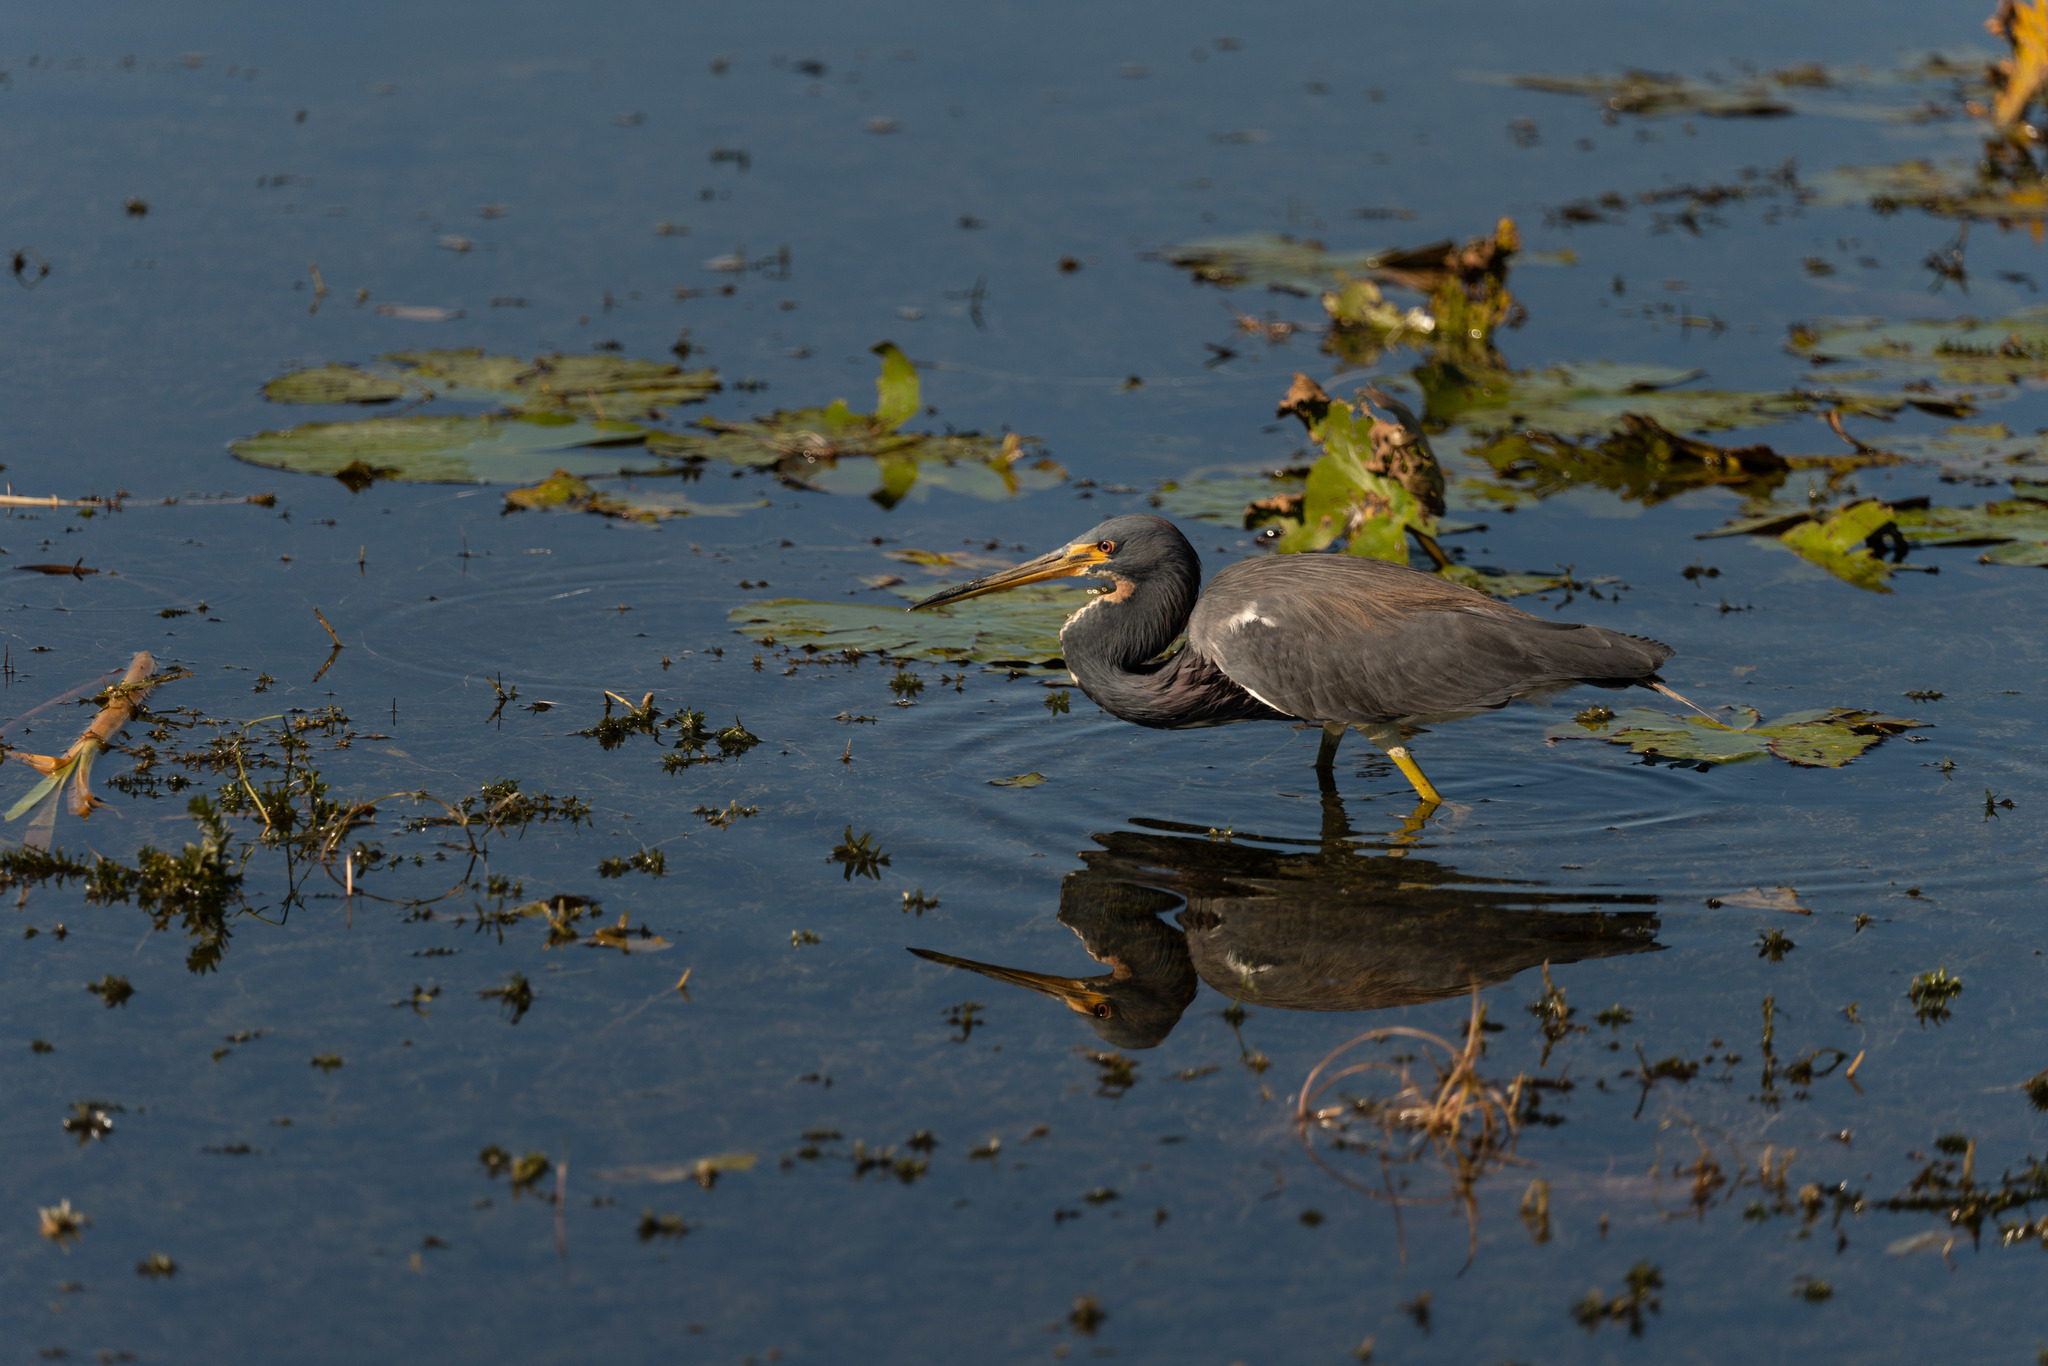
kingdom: Animalia
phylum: Chordata
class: Aves
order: Pelecaniformes
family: Ardeidae
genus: Egretta
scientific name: Egretta tricolor
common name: Tricolored heron
